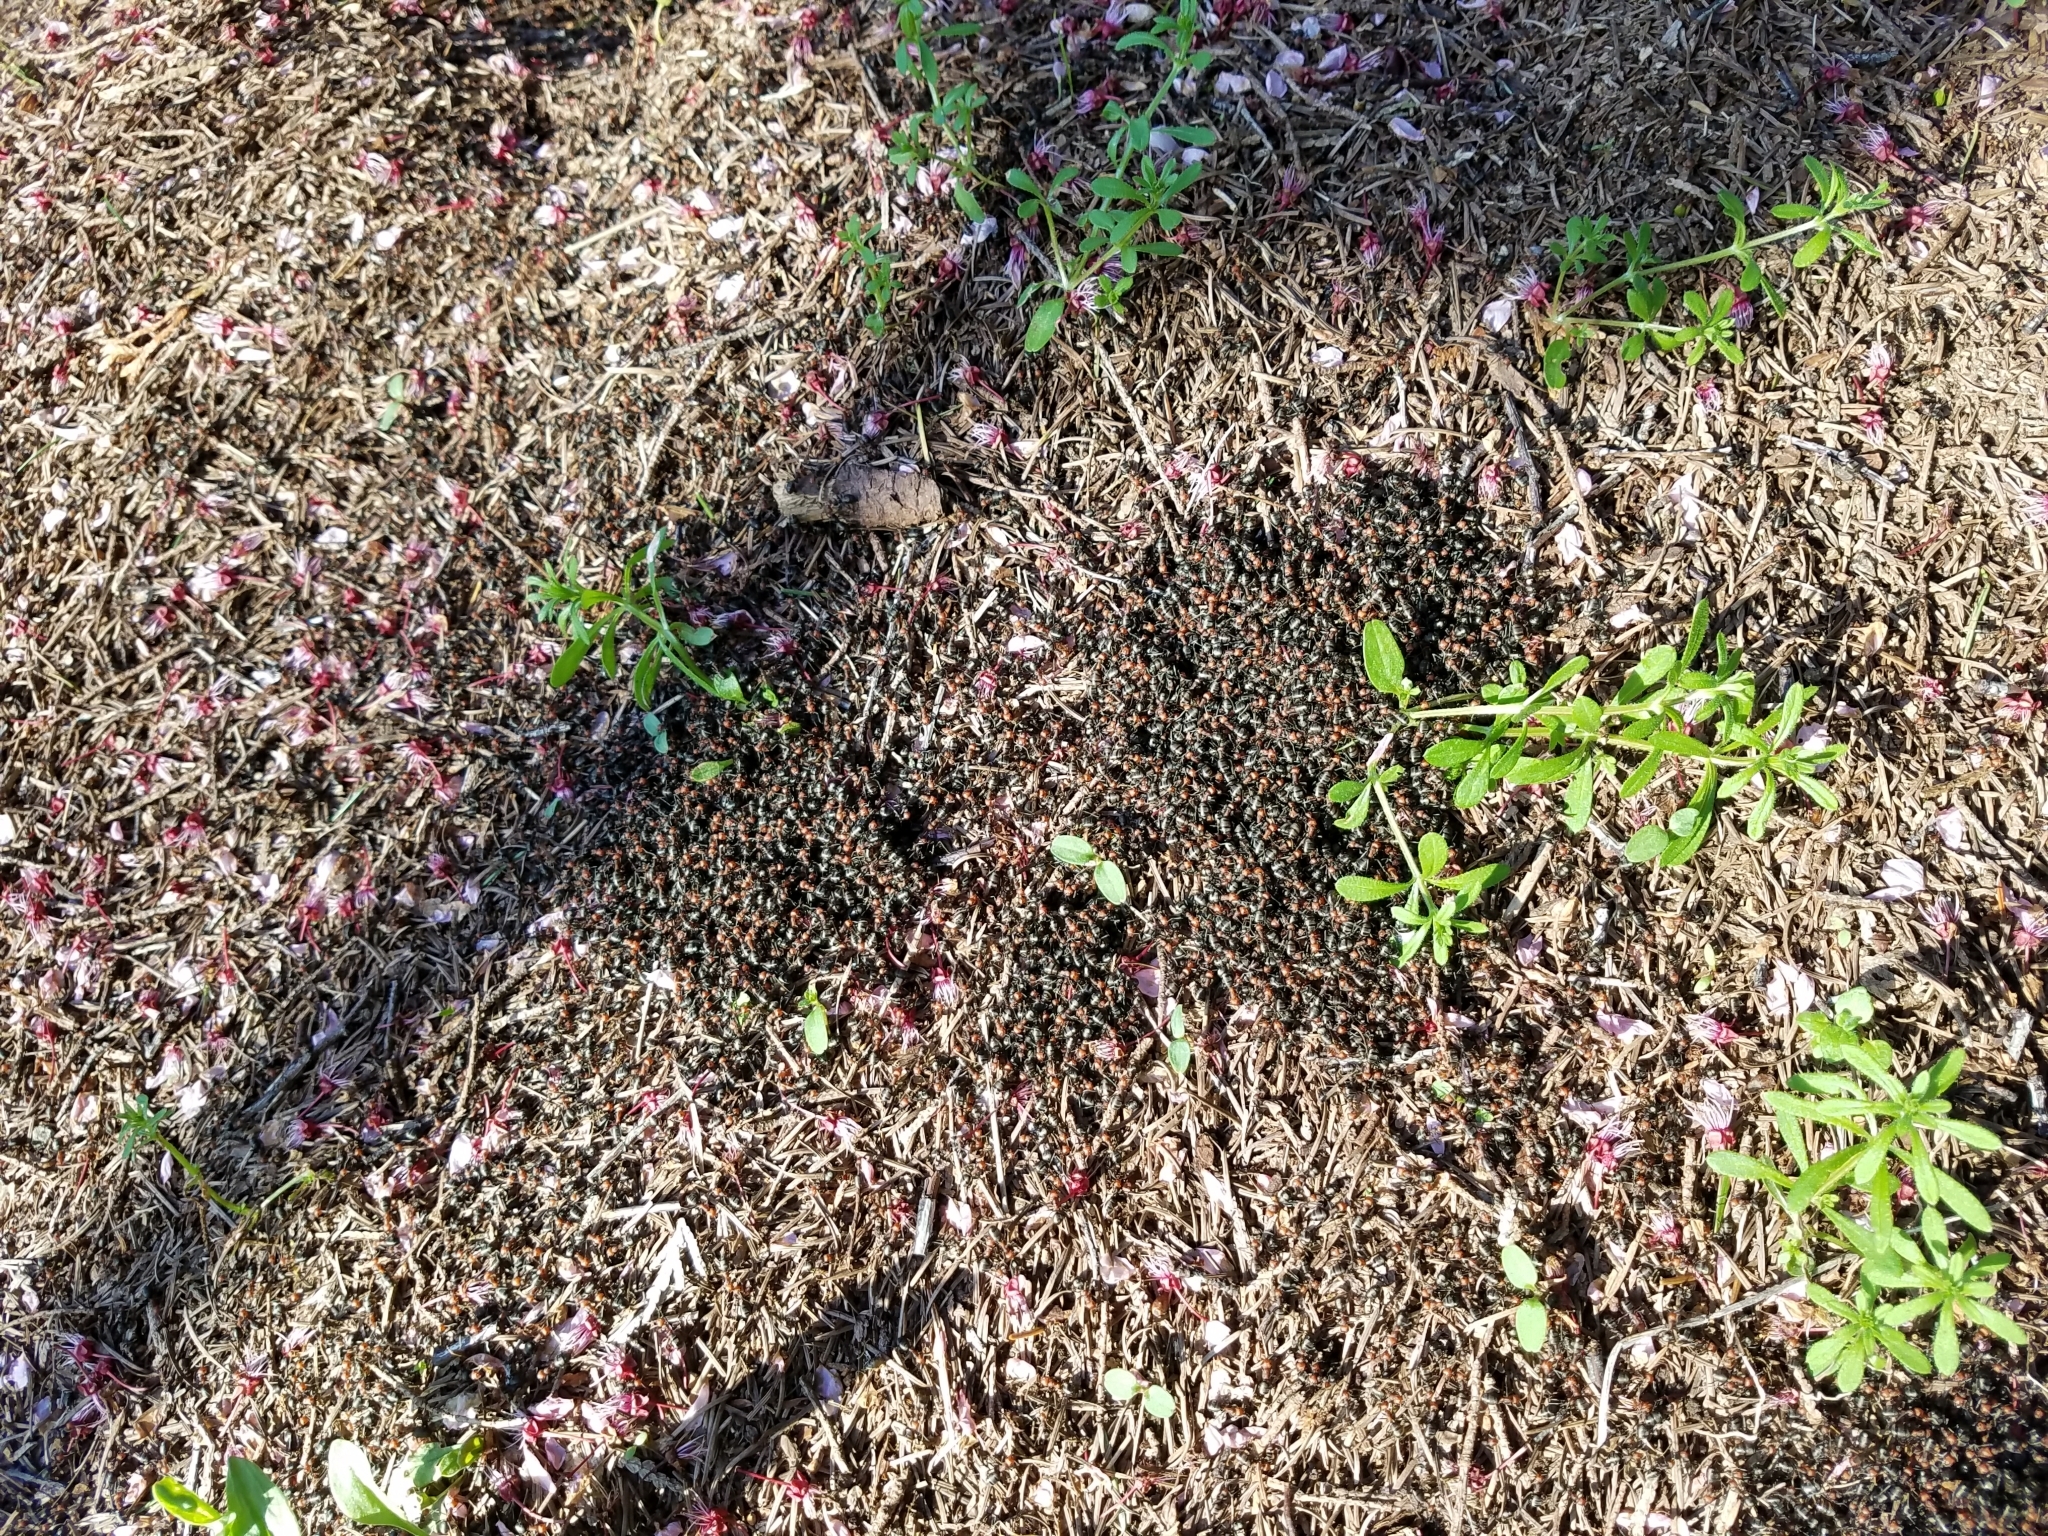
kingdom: Animalia
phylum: Arthropoda
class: Insecta
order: Hymenoptera
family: Formicidae
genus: Formica
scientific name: Formica obscuripes
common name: Western thatching ant
